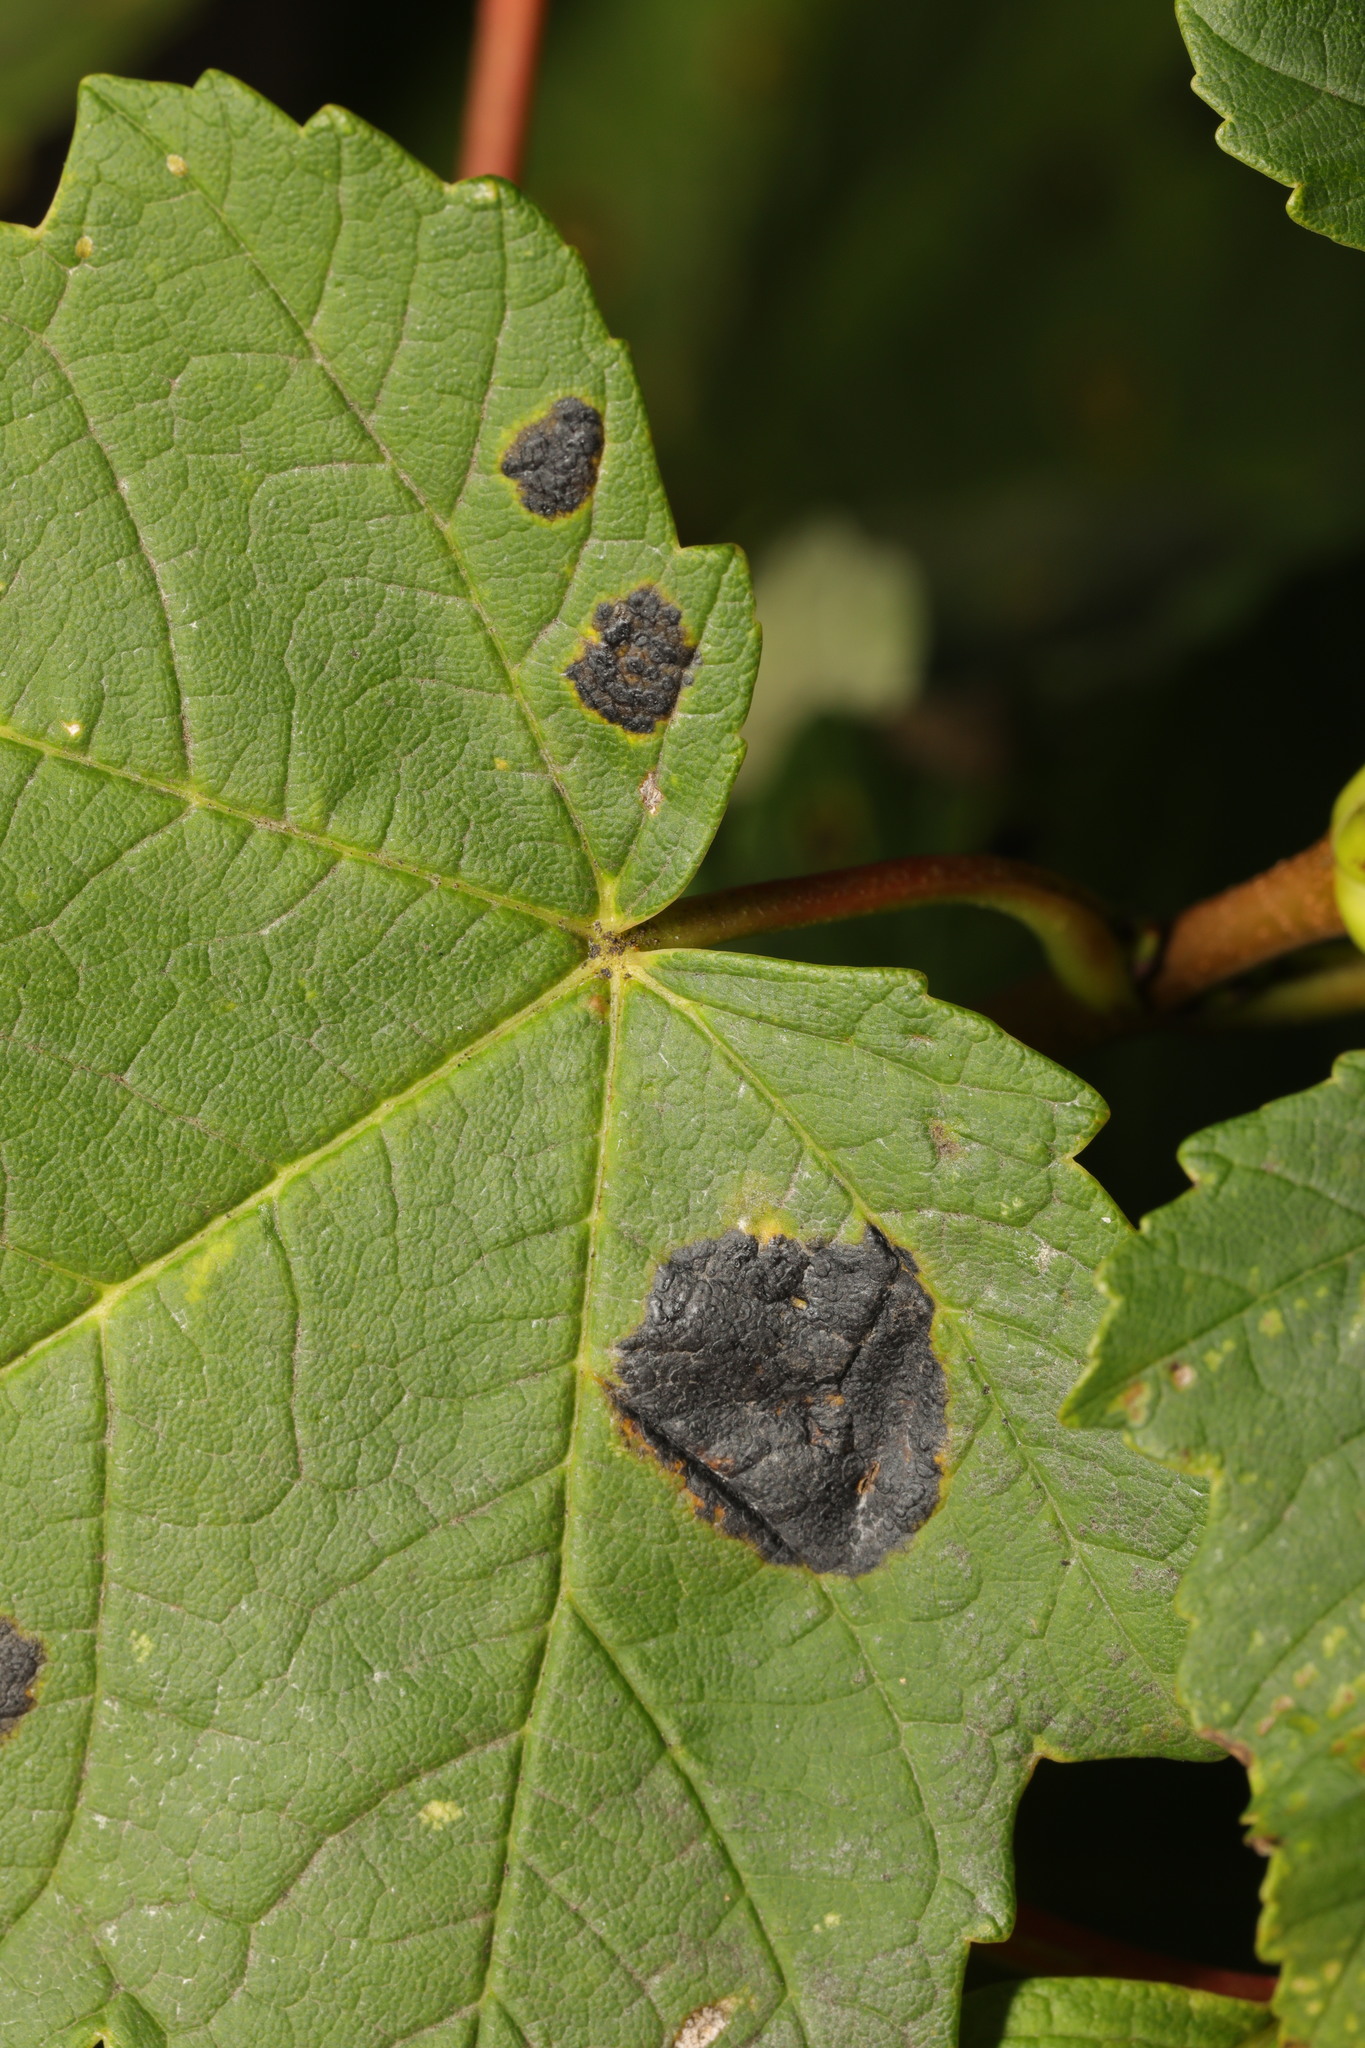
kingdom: Fungi
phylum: Ascomycota
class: Leotiomycetes
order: Rhytismatales
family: Rhytismataceae
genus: Rhytisma
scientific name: Rhytisma acerinum
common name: European tar spot
